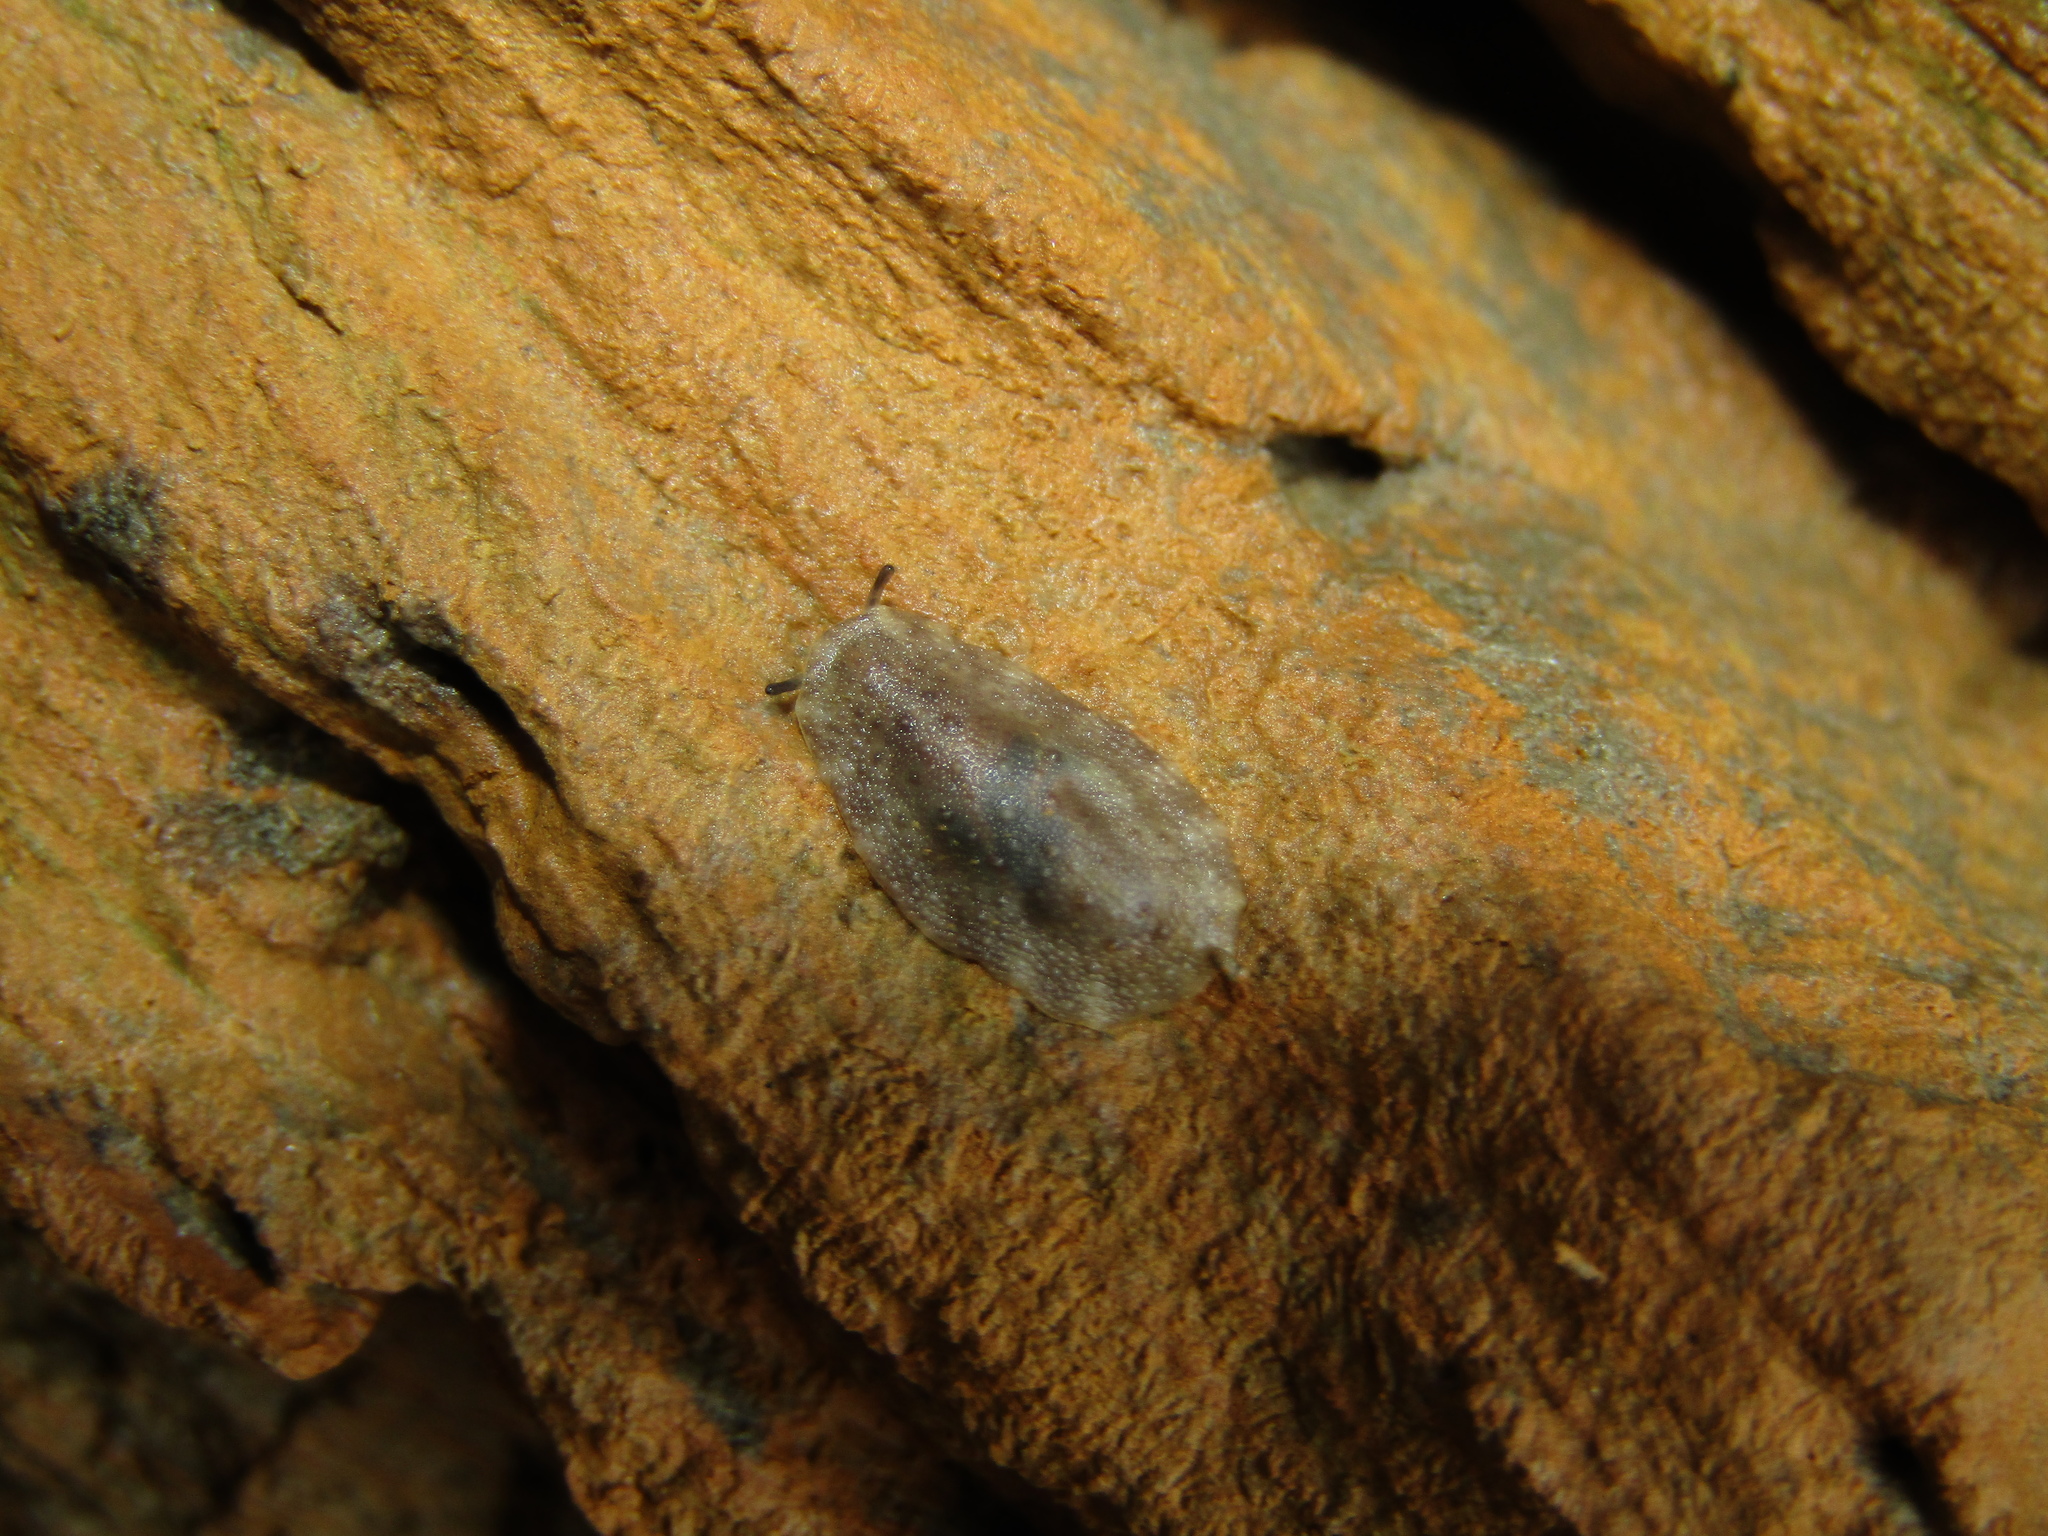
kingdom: Animalia
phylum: Mollusca
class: Gastropoda
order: Systellommatophora
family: Onchidiidae
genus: Onchidella
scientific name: Onchidella nigricans
